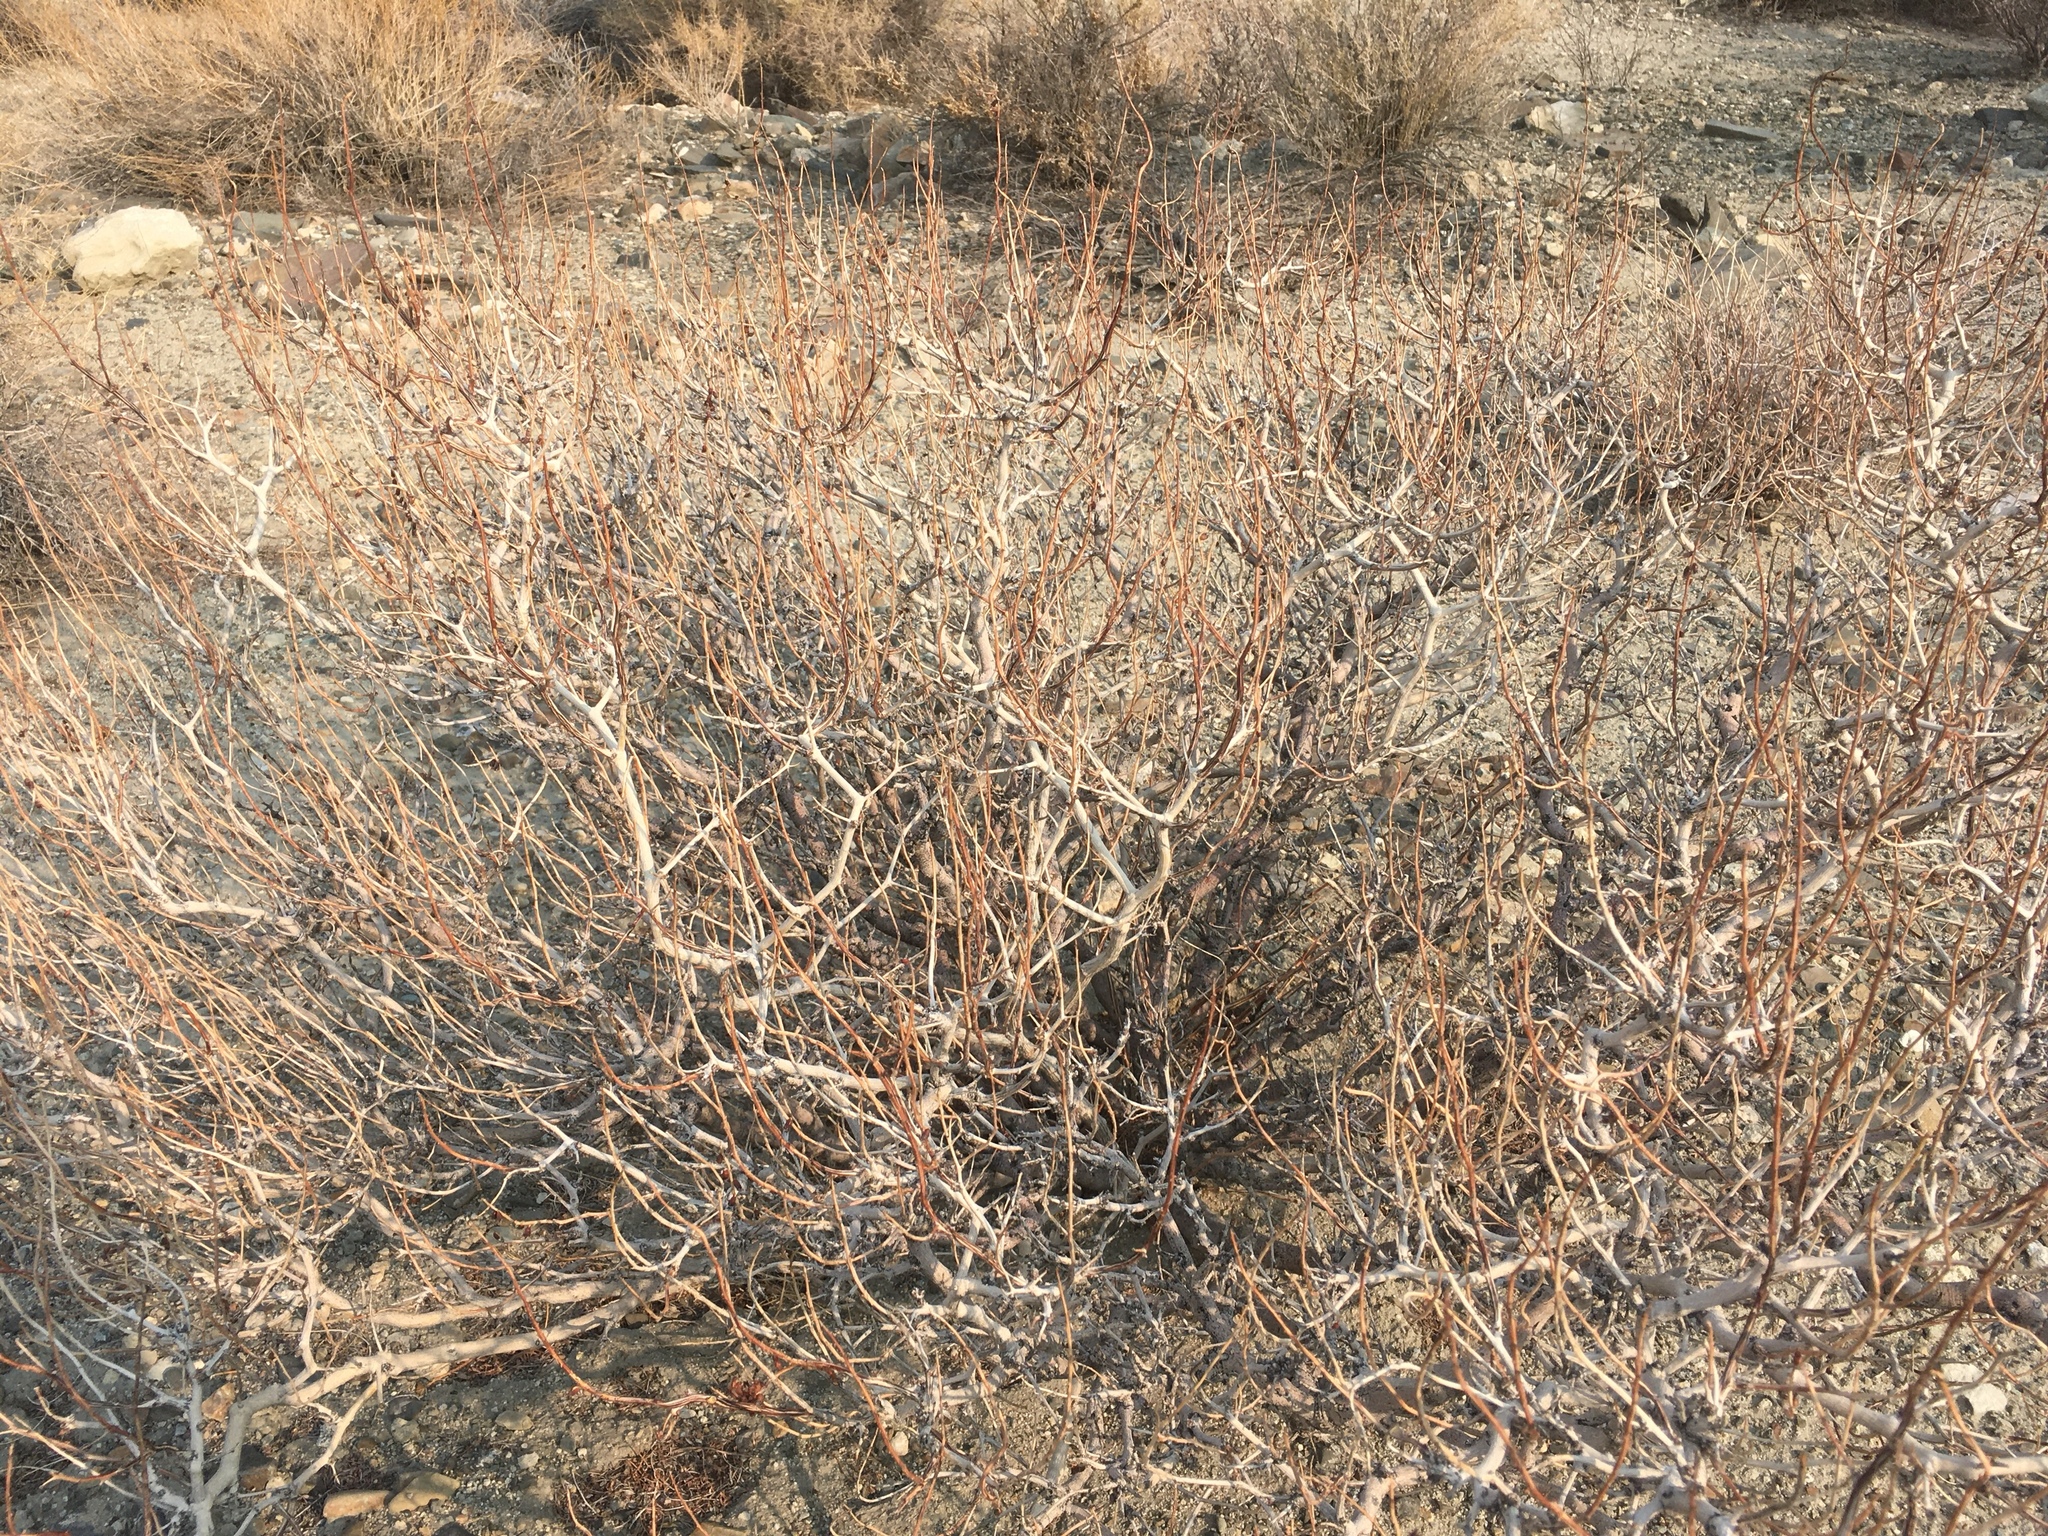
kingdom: Plantae
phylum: Tracheophyta
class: Magnoliopsida
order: Fabales
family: Fabaceae
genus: Psorothamnus
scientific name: Psorothamnus arborescens
